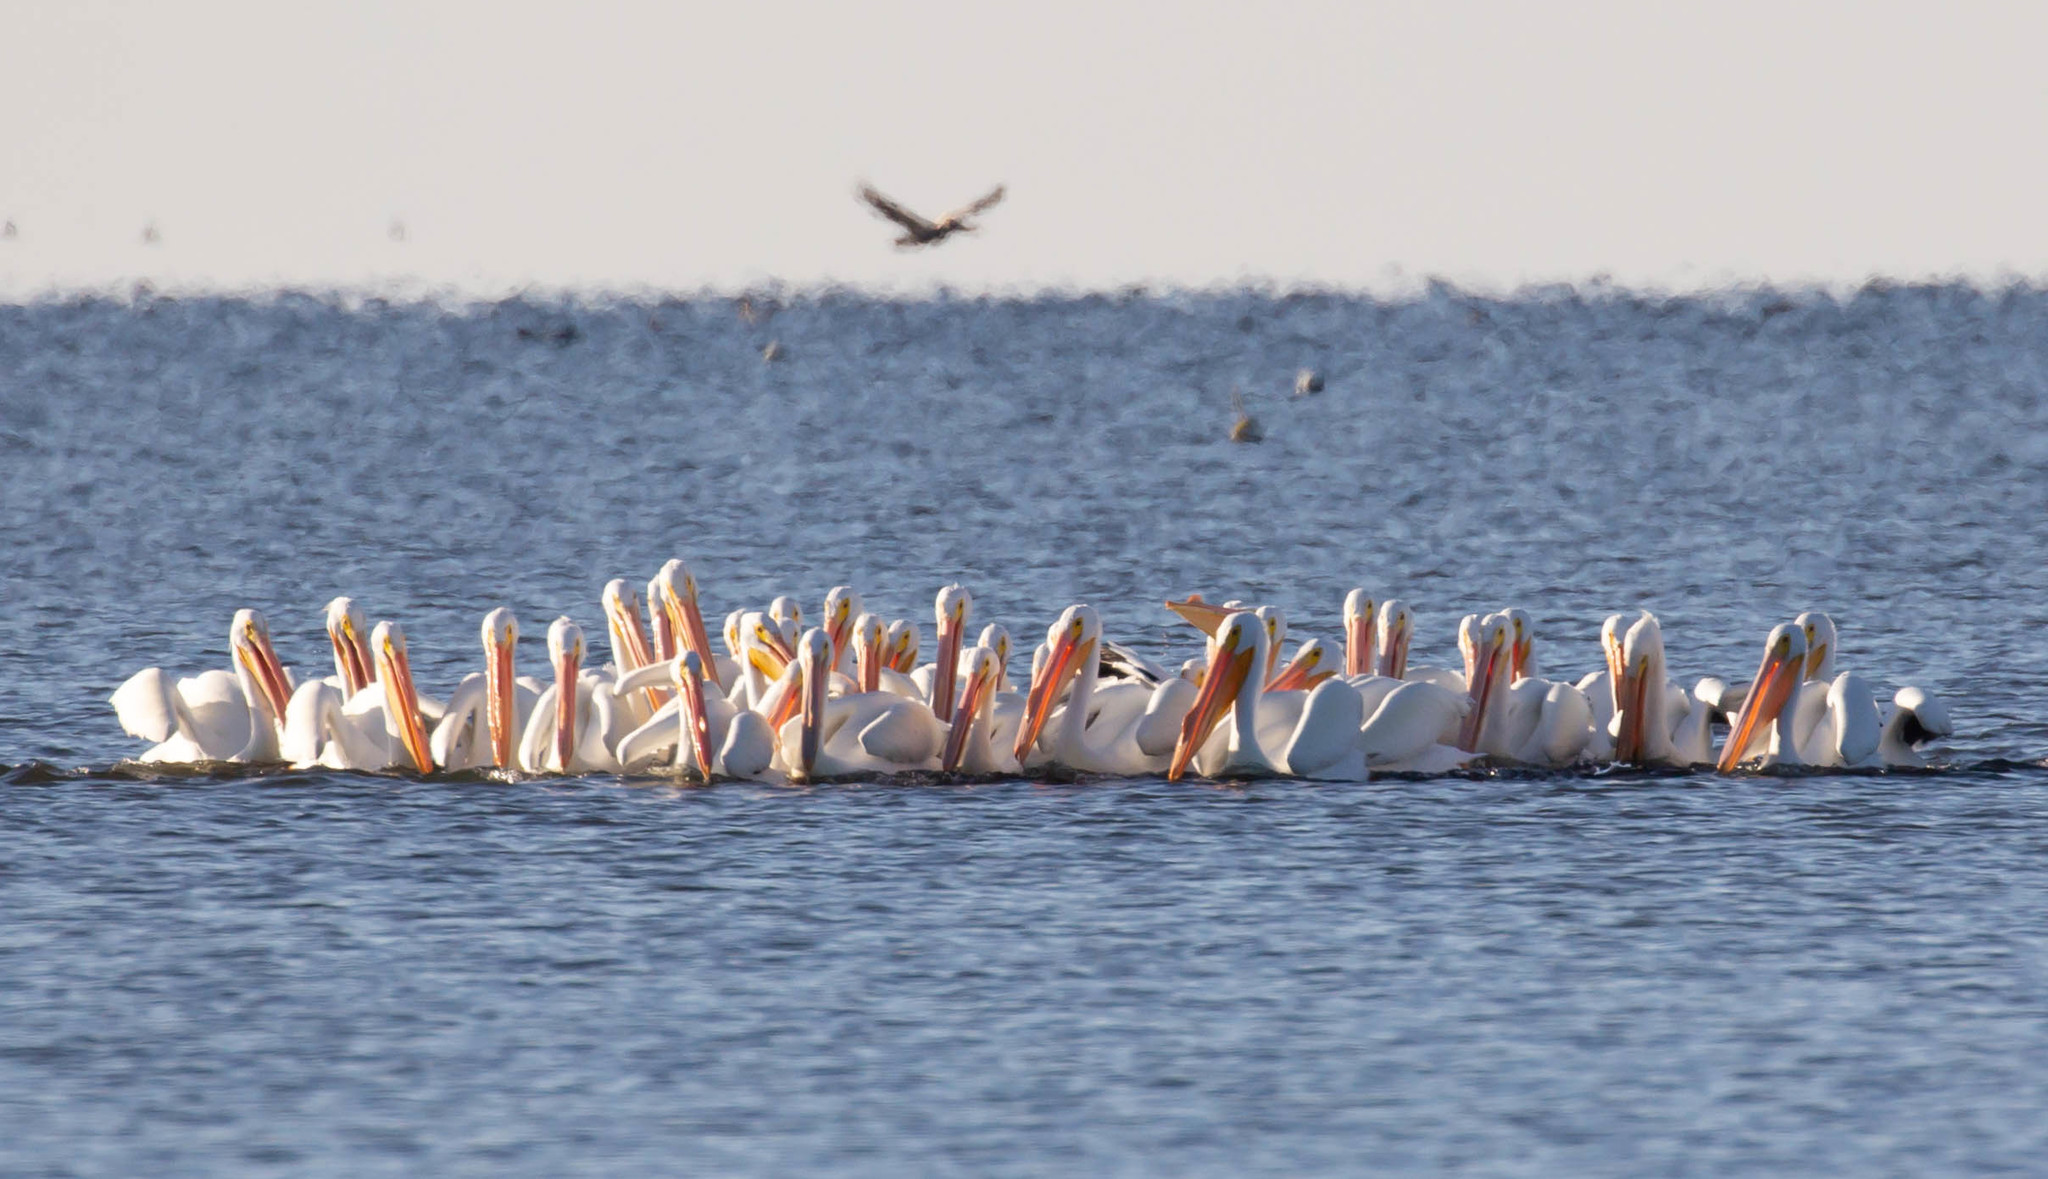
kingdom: Animalia
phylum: Chordata
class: Aves
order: Pelecaniformes
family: Pelecanidae
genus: Pelecanus
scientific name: Pelecanus erythrorhynchos
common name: American white pelican
